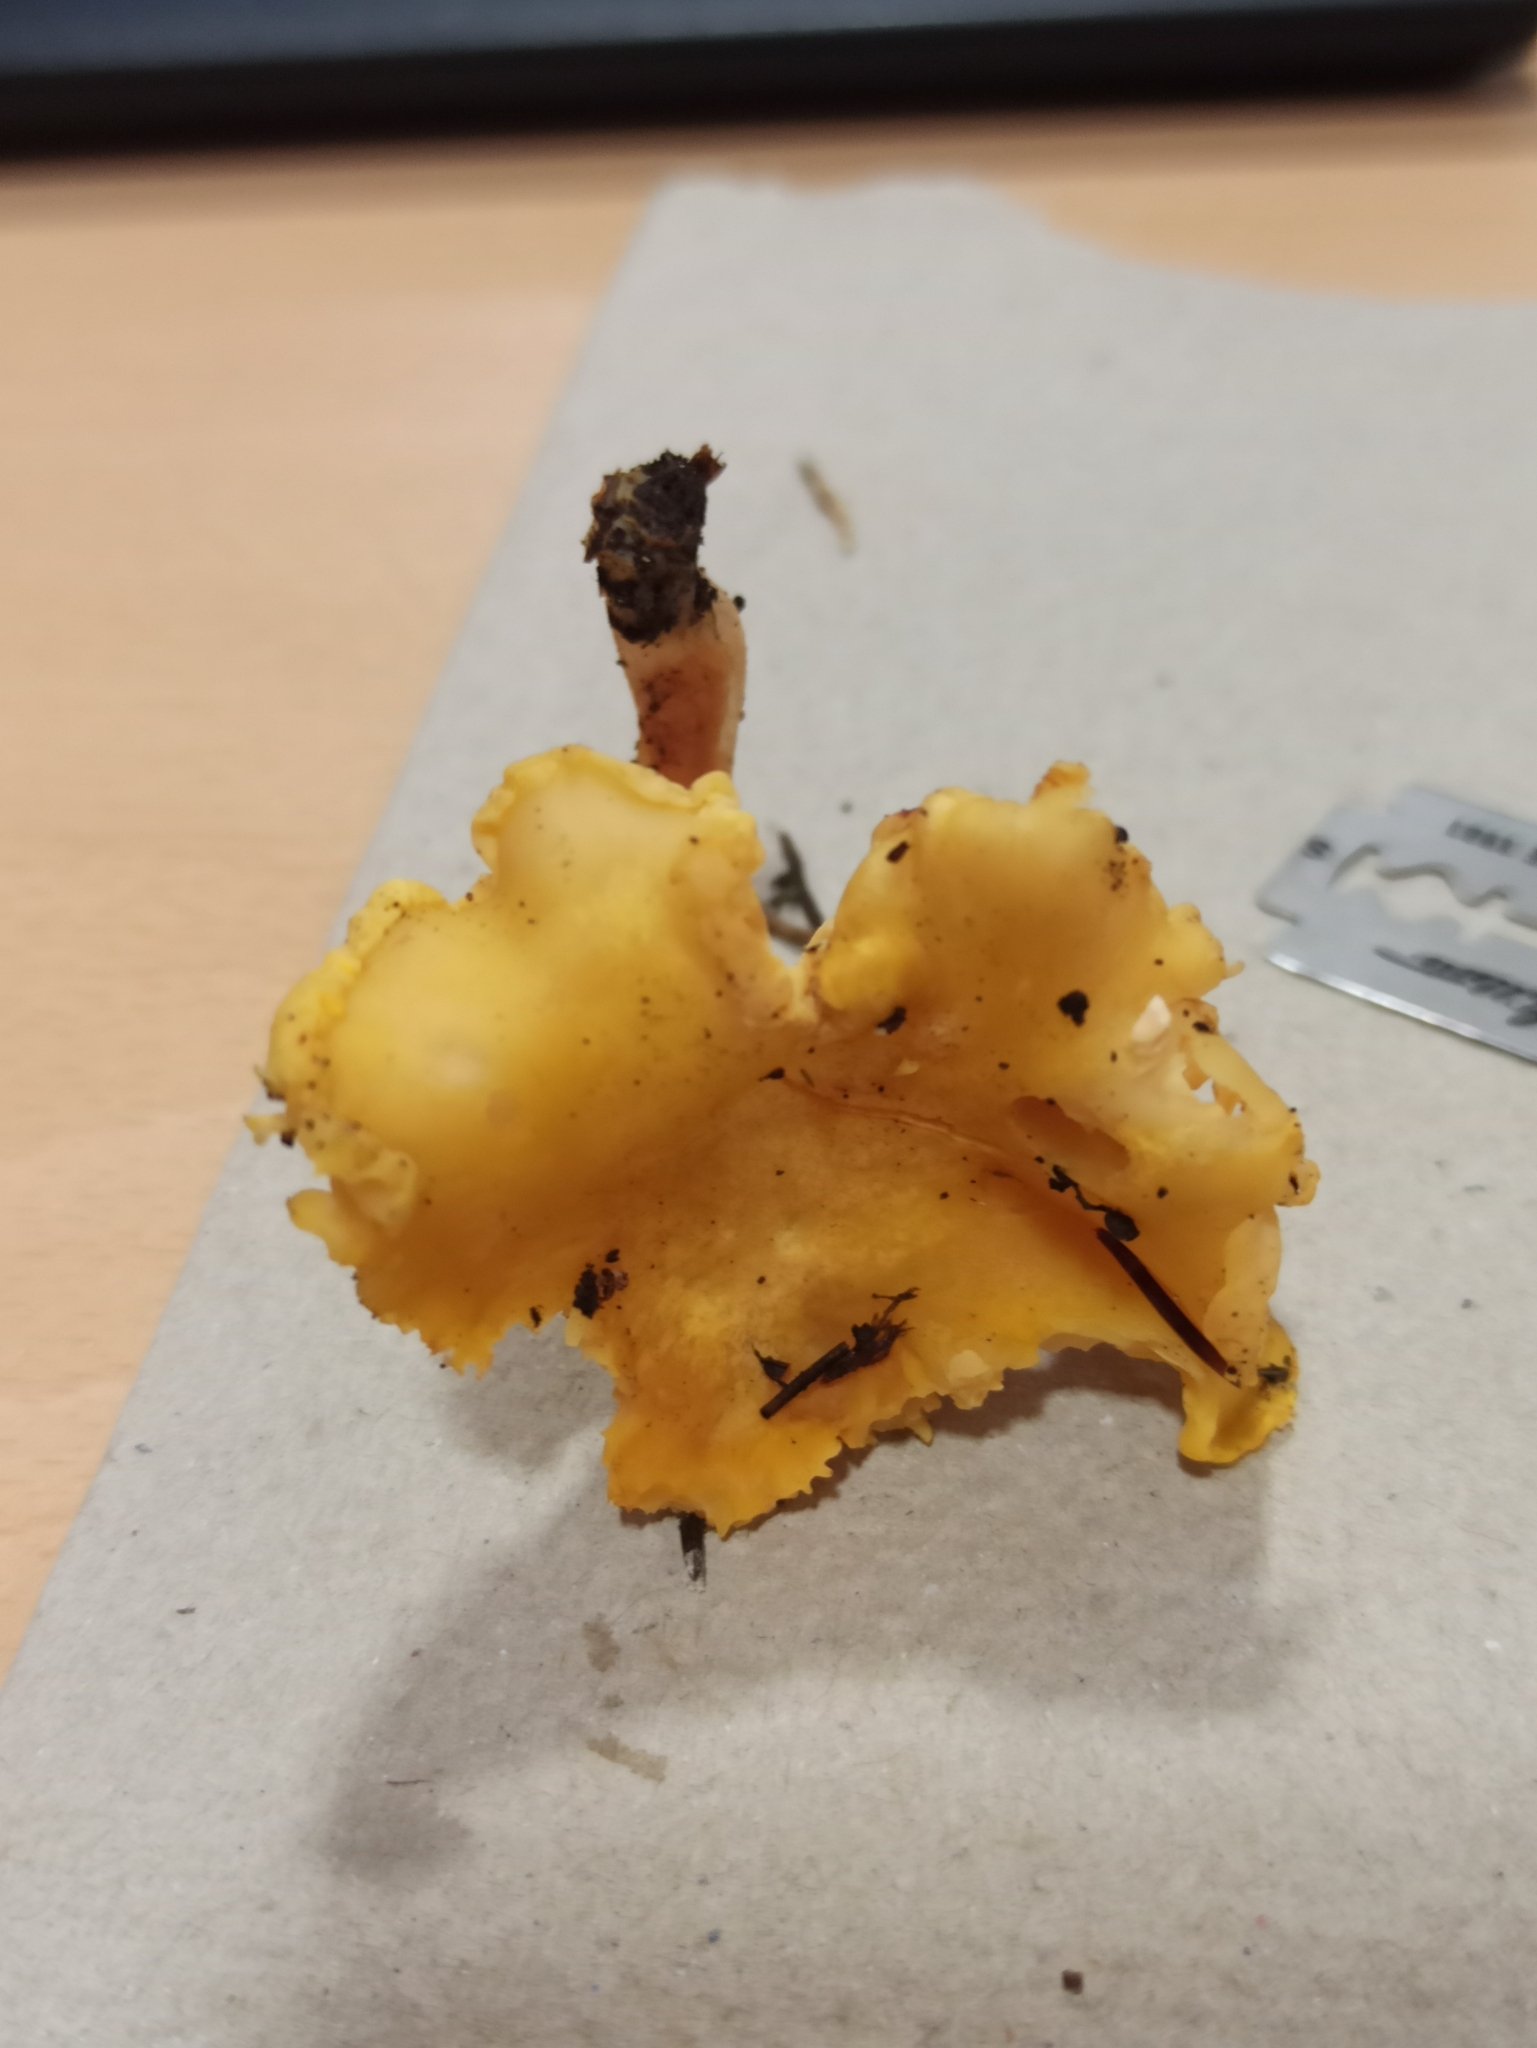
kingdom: Fungi
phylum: Basidiomycota
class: Agaricomycetes
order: Cantharellales
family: Hydnaceae
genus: Cantharellus
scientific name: Cantharellus cibarius
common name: Chanterelle
